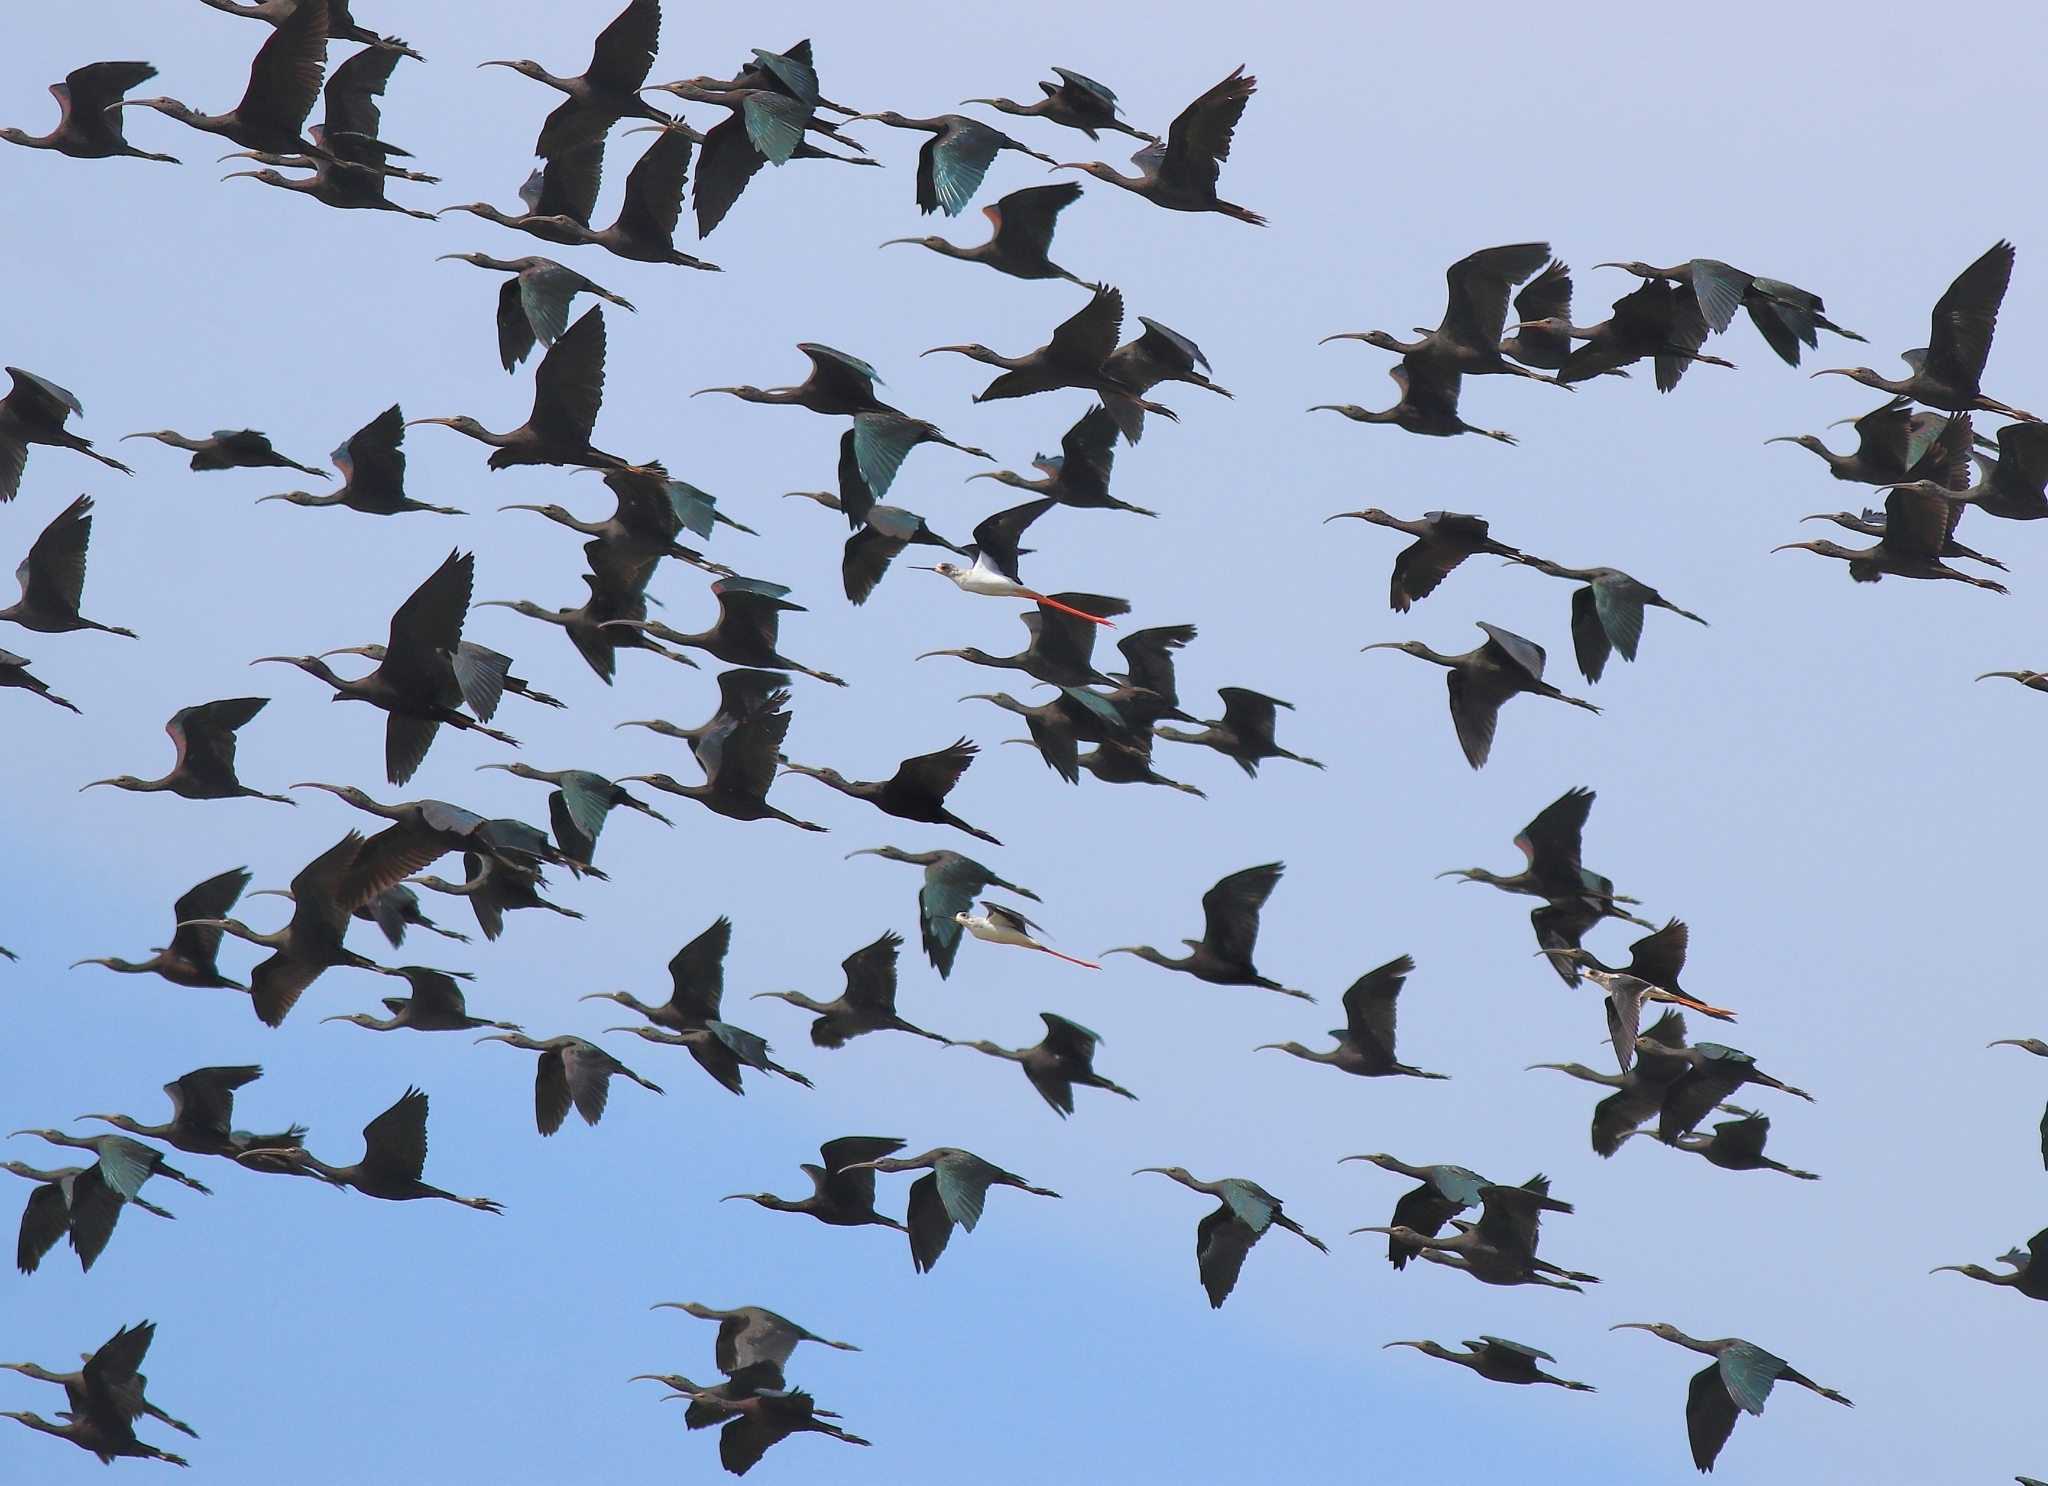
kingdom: Animalia
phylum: Chordata
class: Aves
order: Pelecaniformes
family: Threskiornithidae
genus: Plegadis
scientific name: Plegadis falcinellus
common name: Glossy ibis
